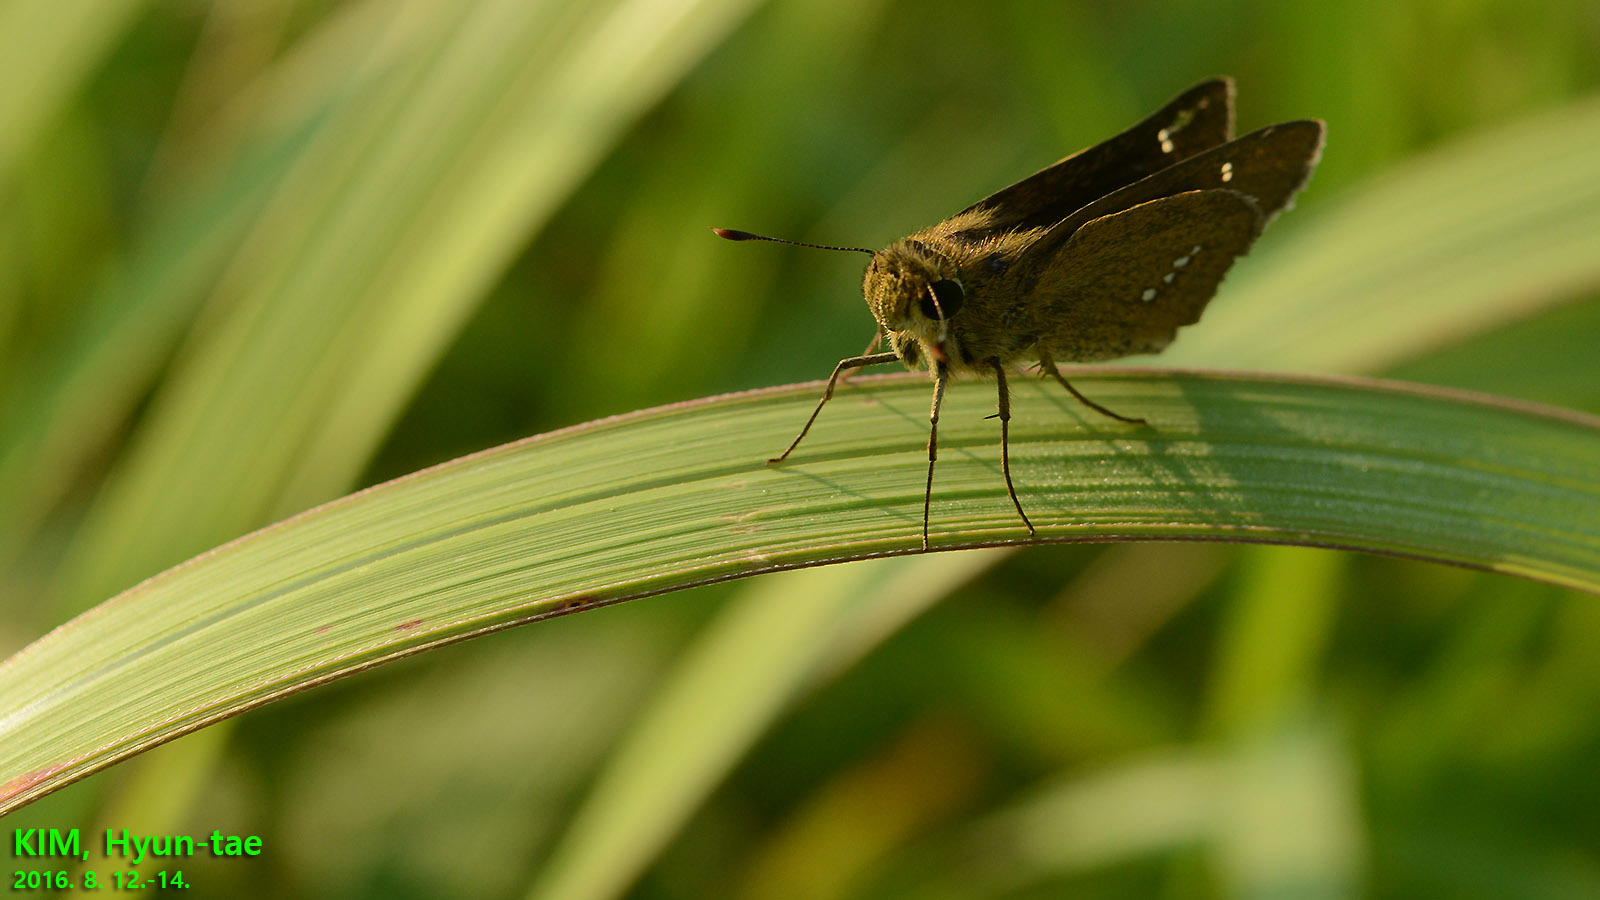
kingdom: Animalia
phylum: Arthropoda
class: Insecta
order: Lepidoptera
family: Hesperiidae
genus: Parnara
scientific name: Parnara guttatus
